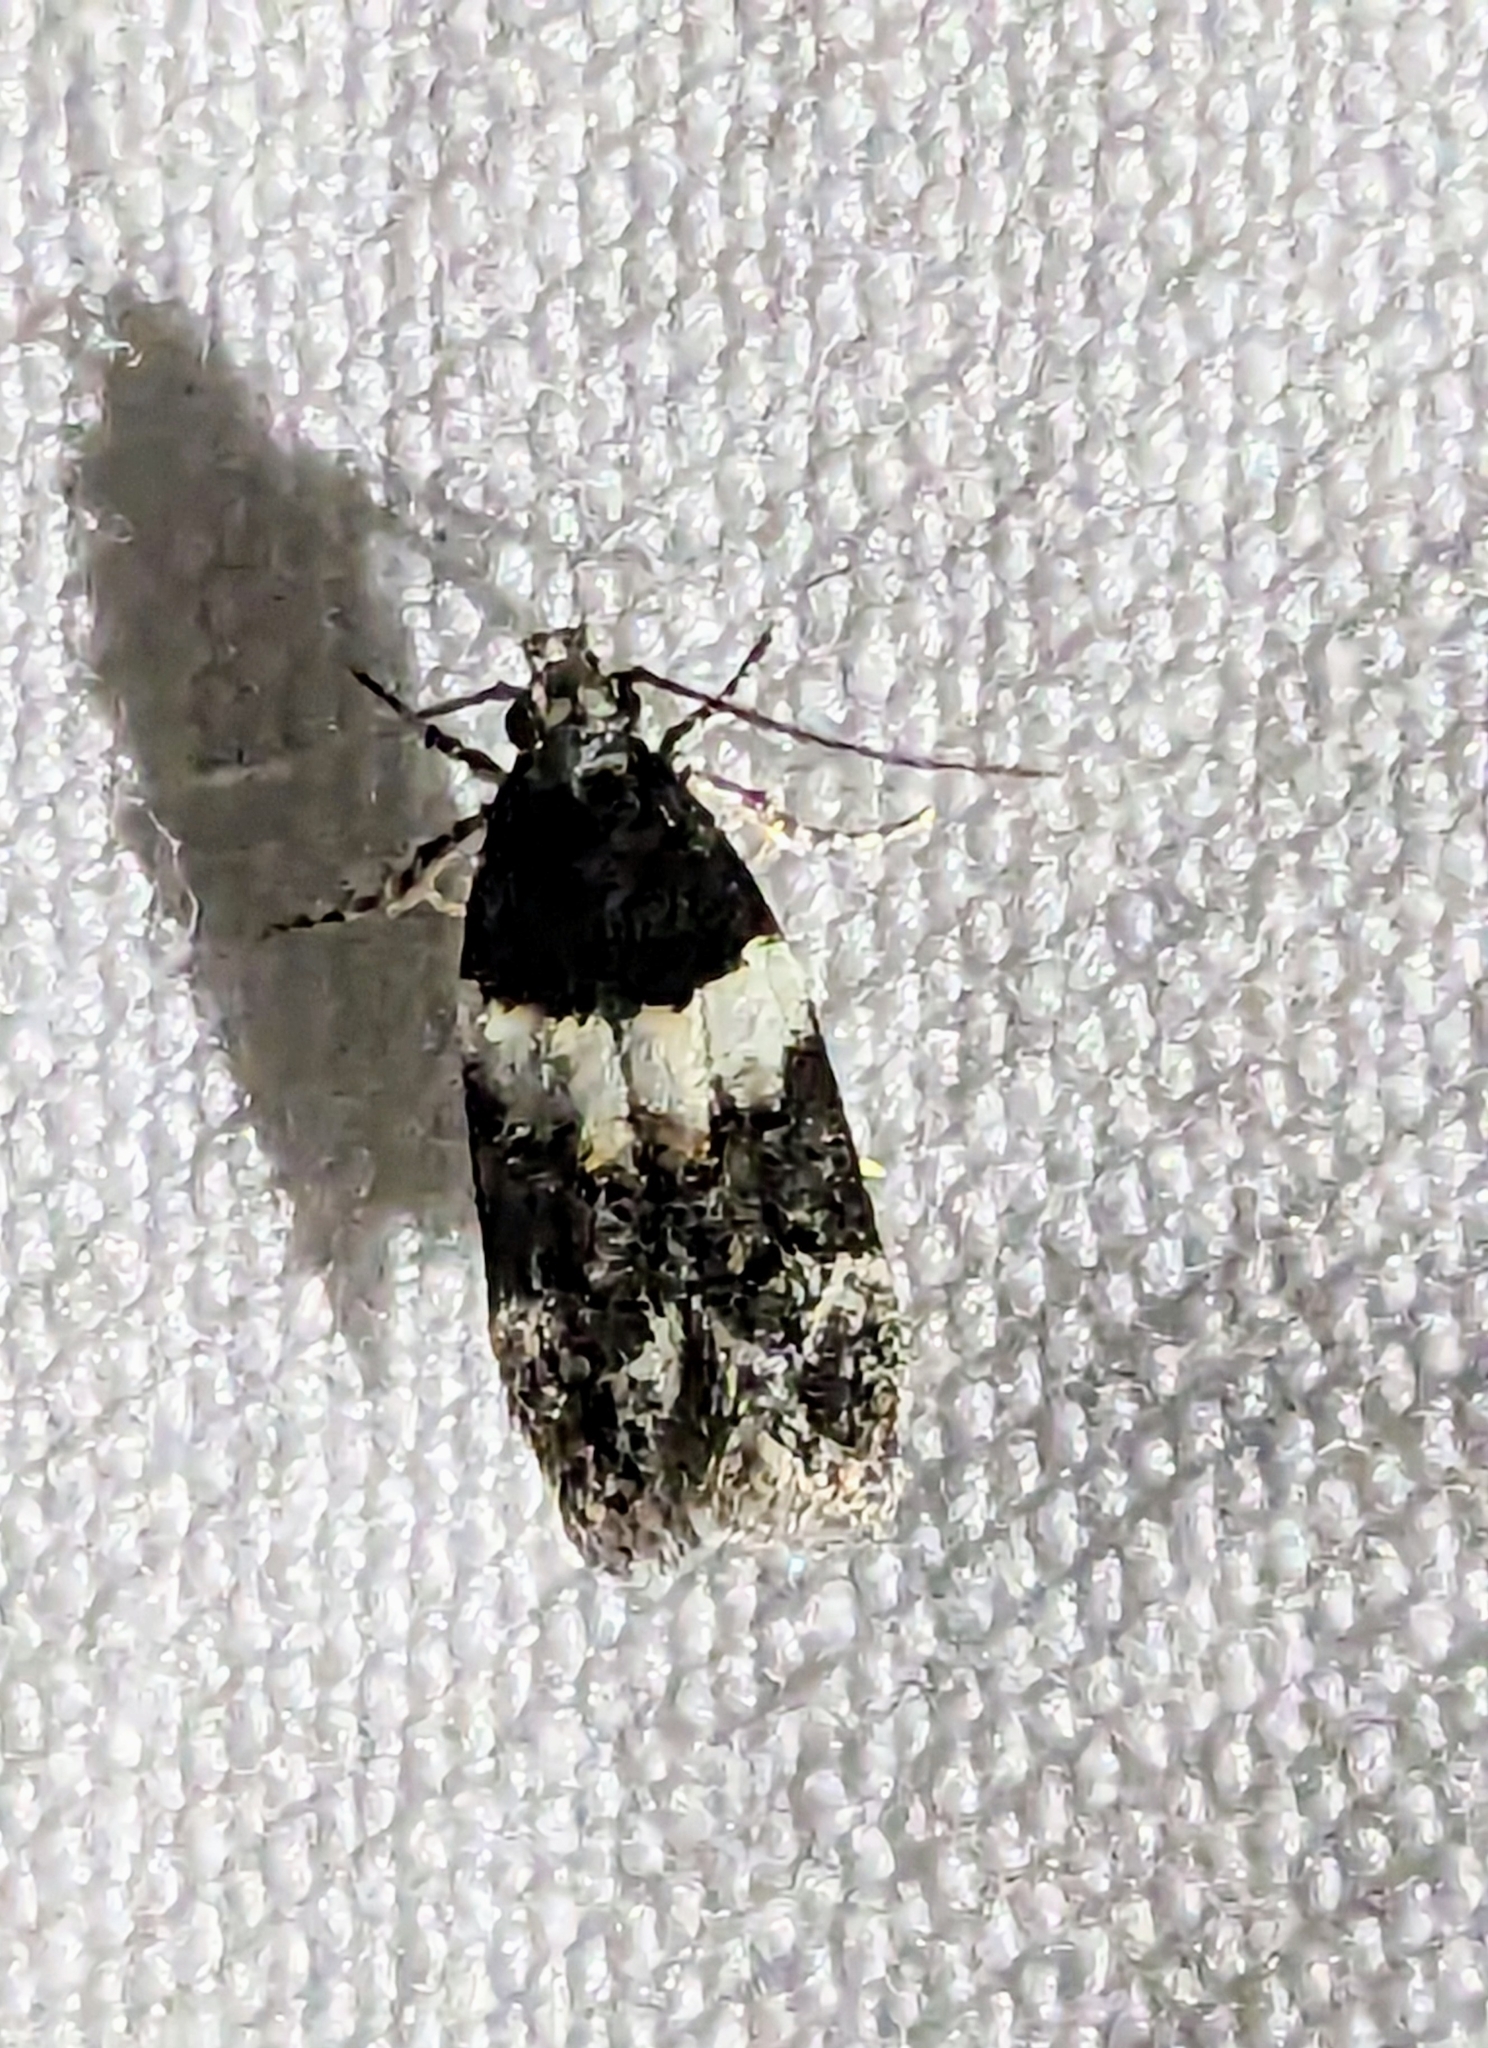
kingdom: Animalia
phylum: Arthropoda
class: Insecta
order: Lepidoptera
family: Gelechiidae
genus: Pubitelphusa
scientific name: Pubitelphusa latifasciella
